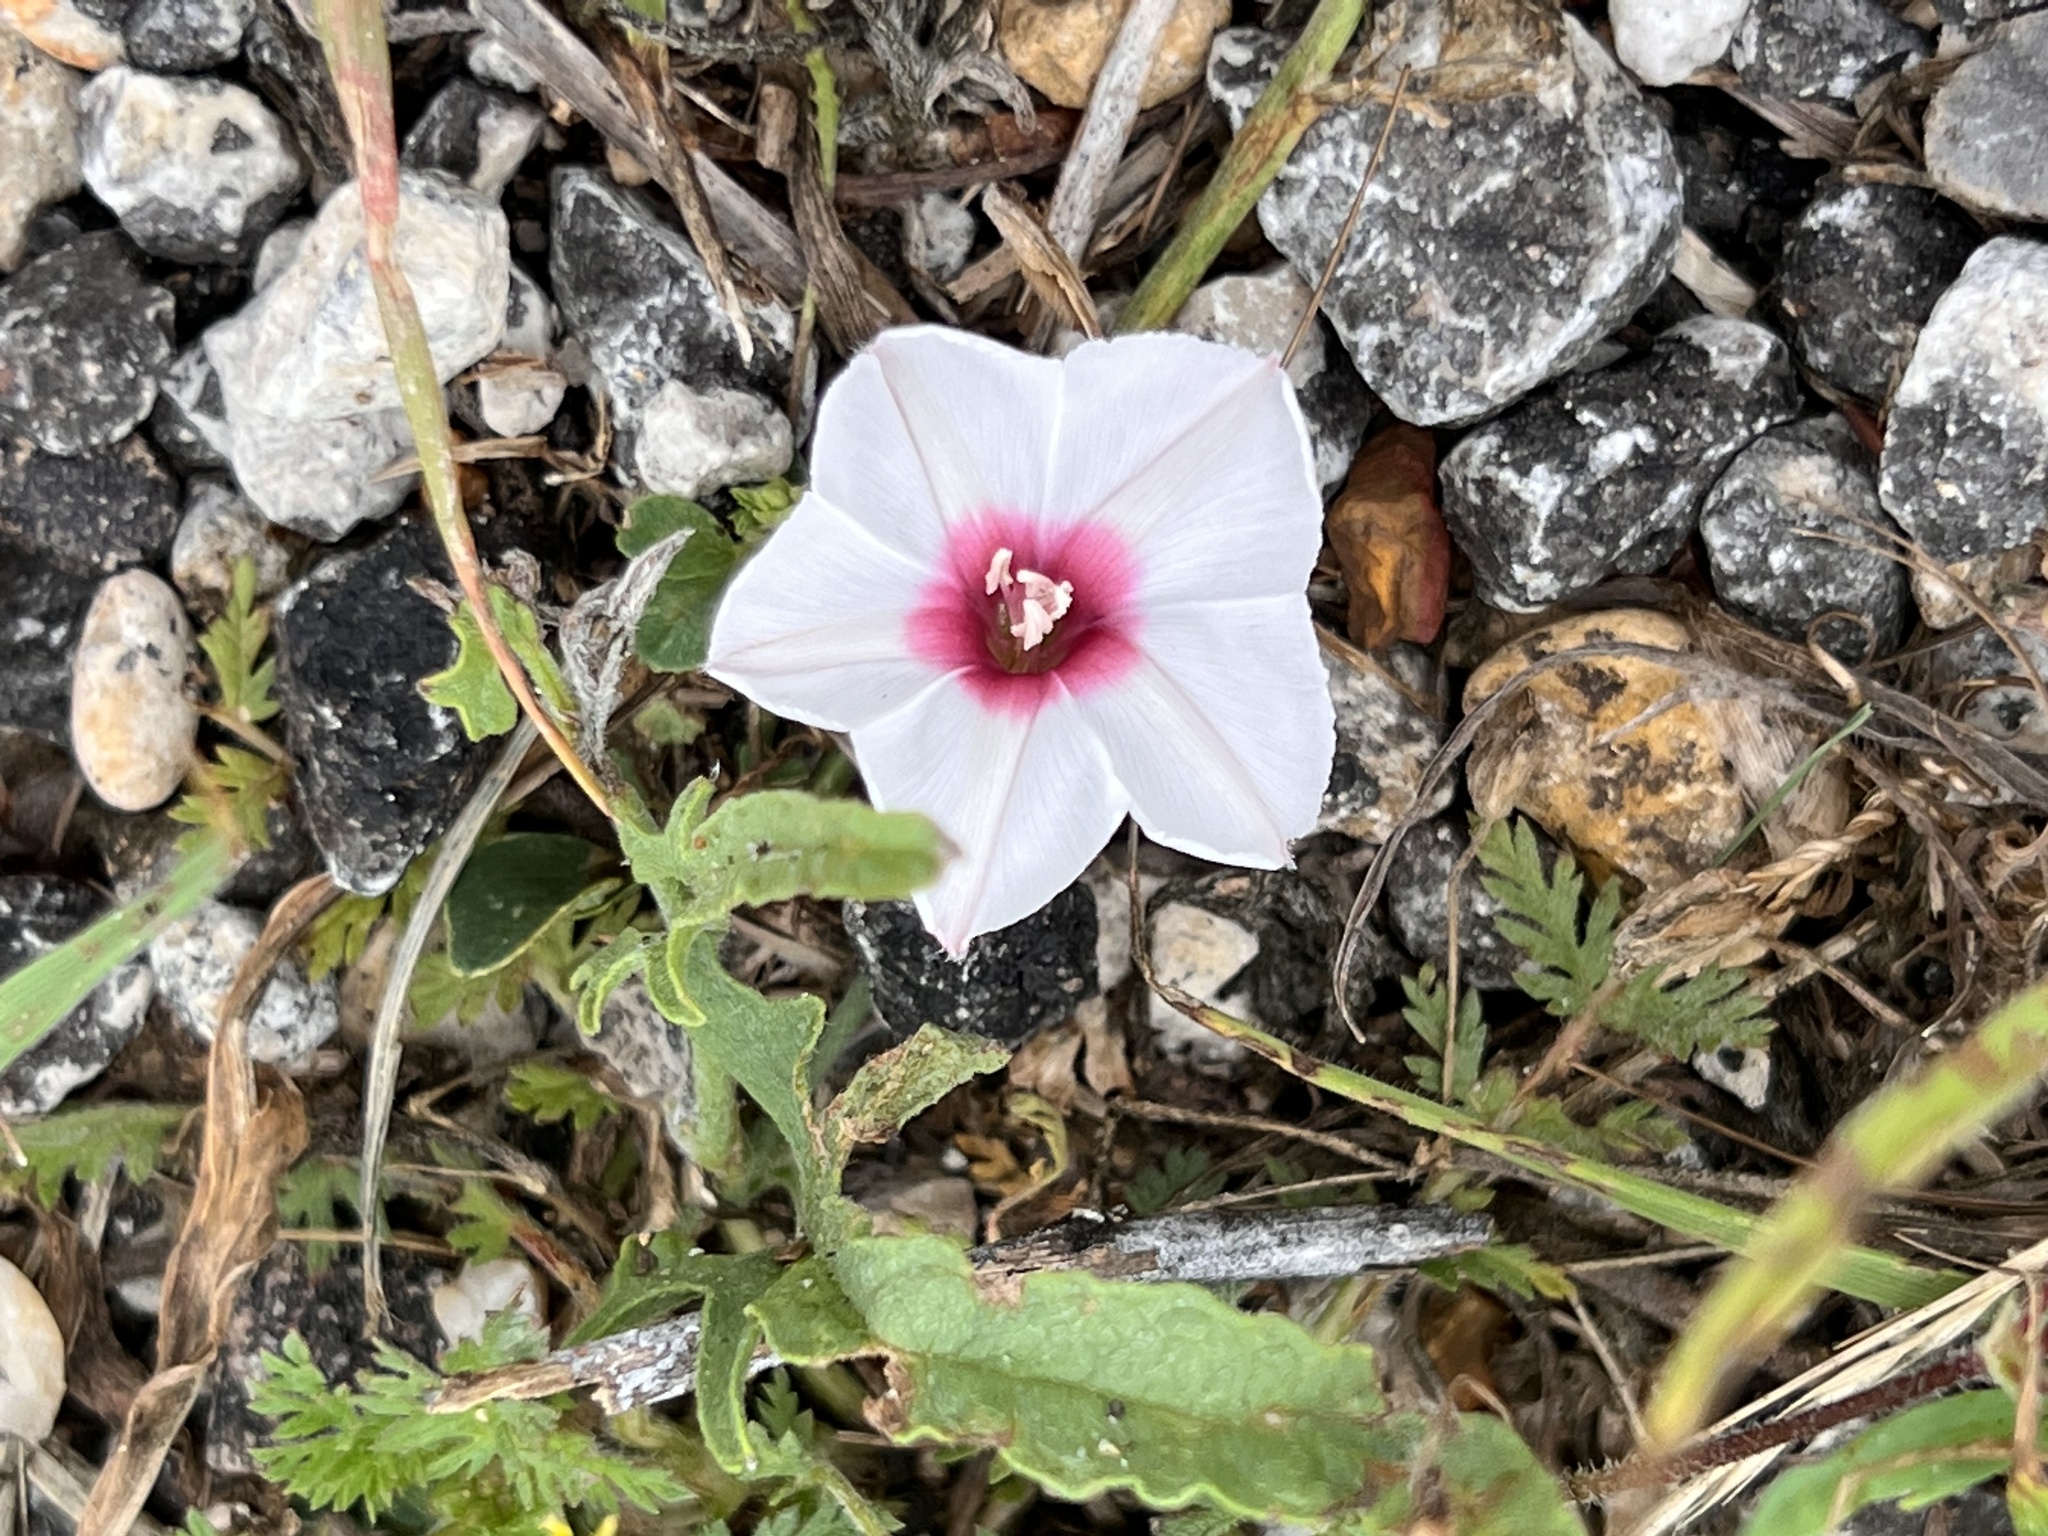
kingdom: Plantae
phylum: Tracheophyta
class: Magnoliopsida
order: Solanales
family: Convolvulaceae
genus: Convolvulus
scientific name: Convolvulus equitans
